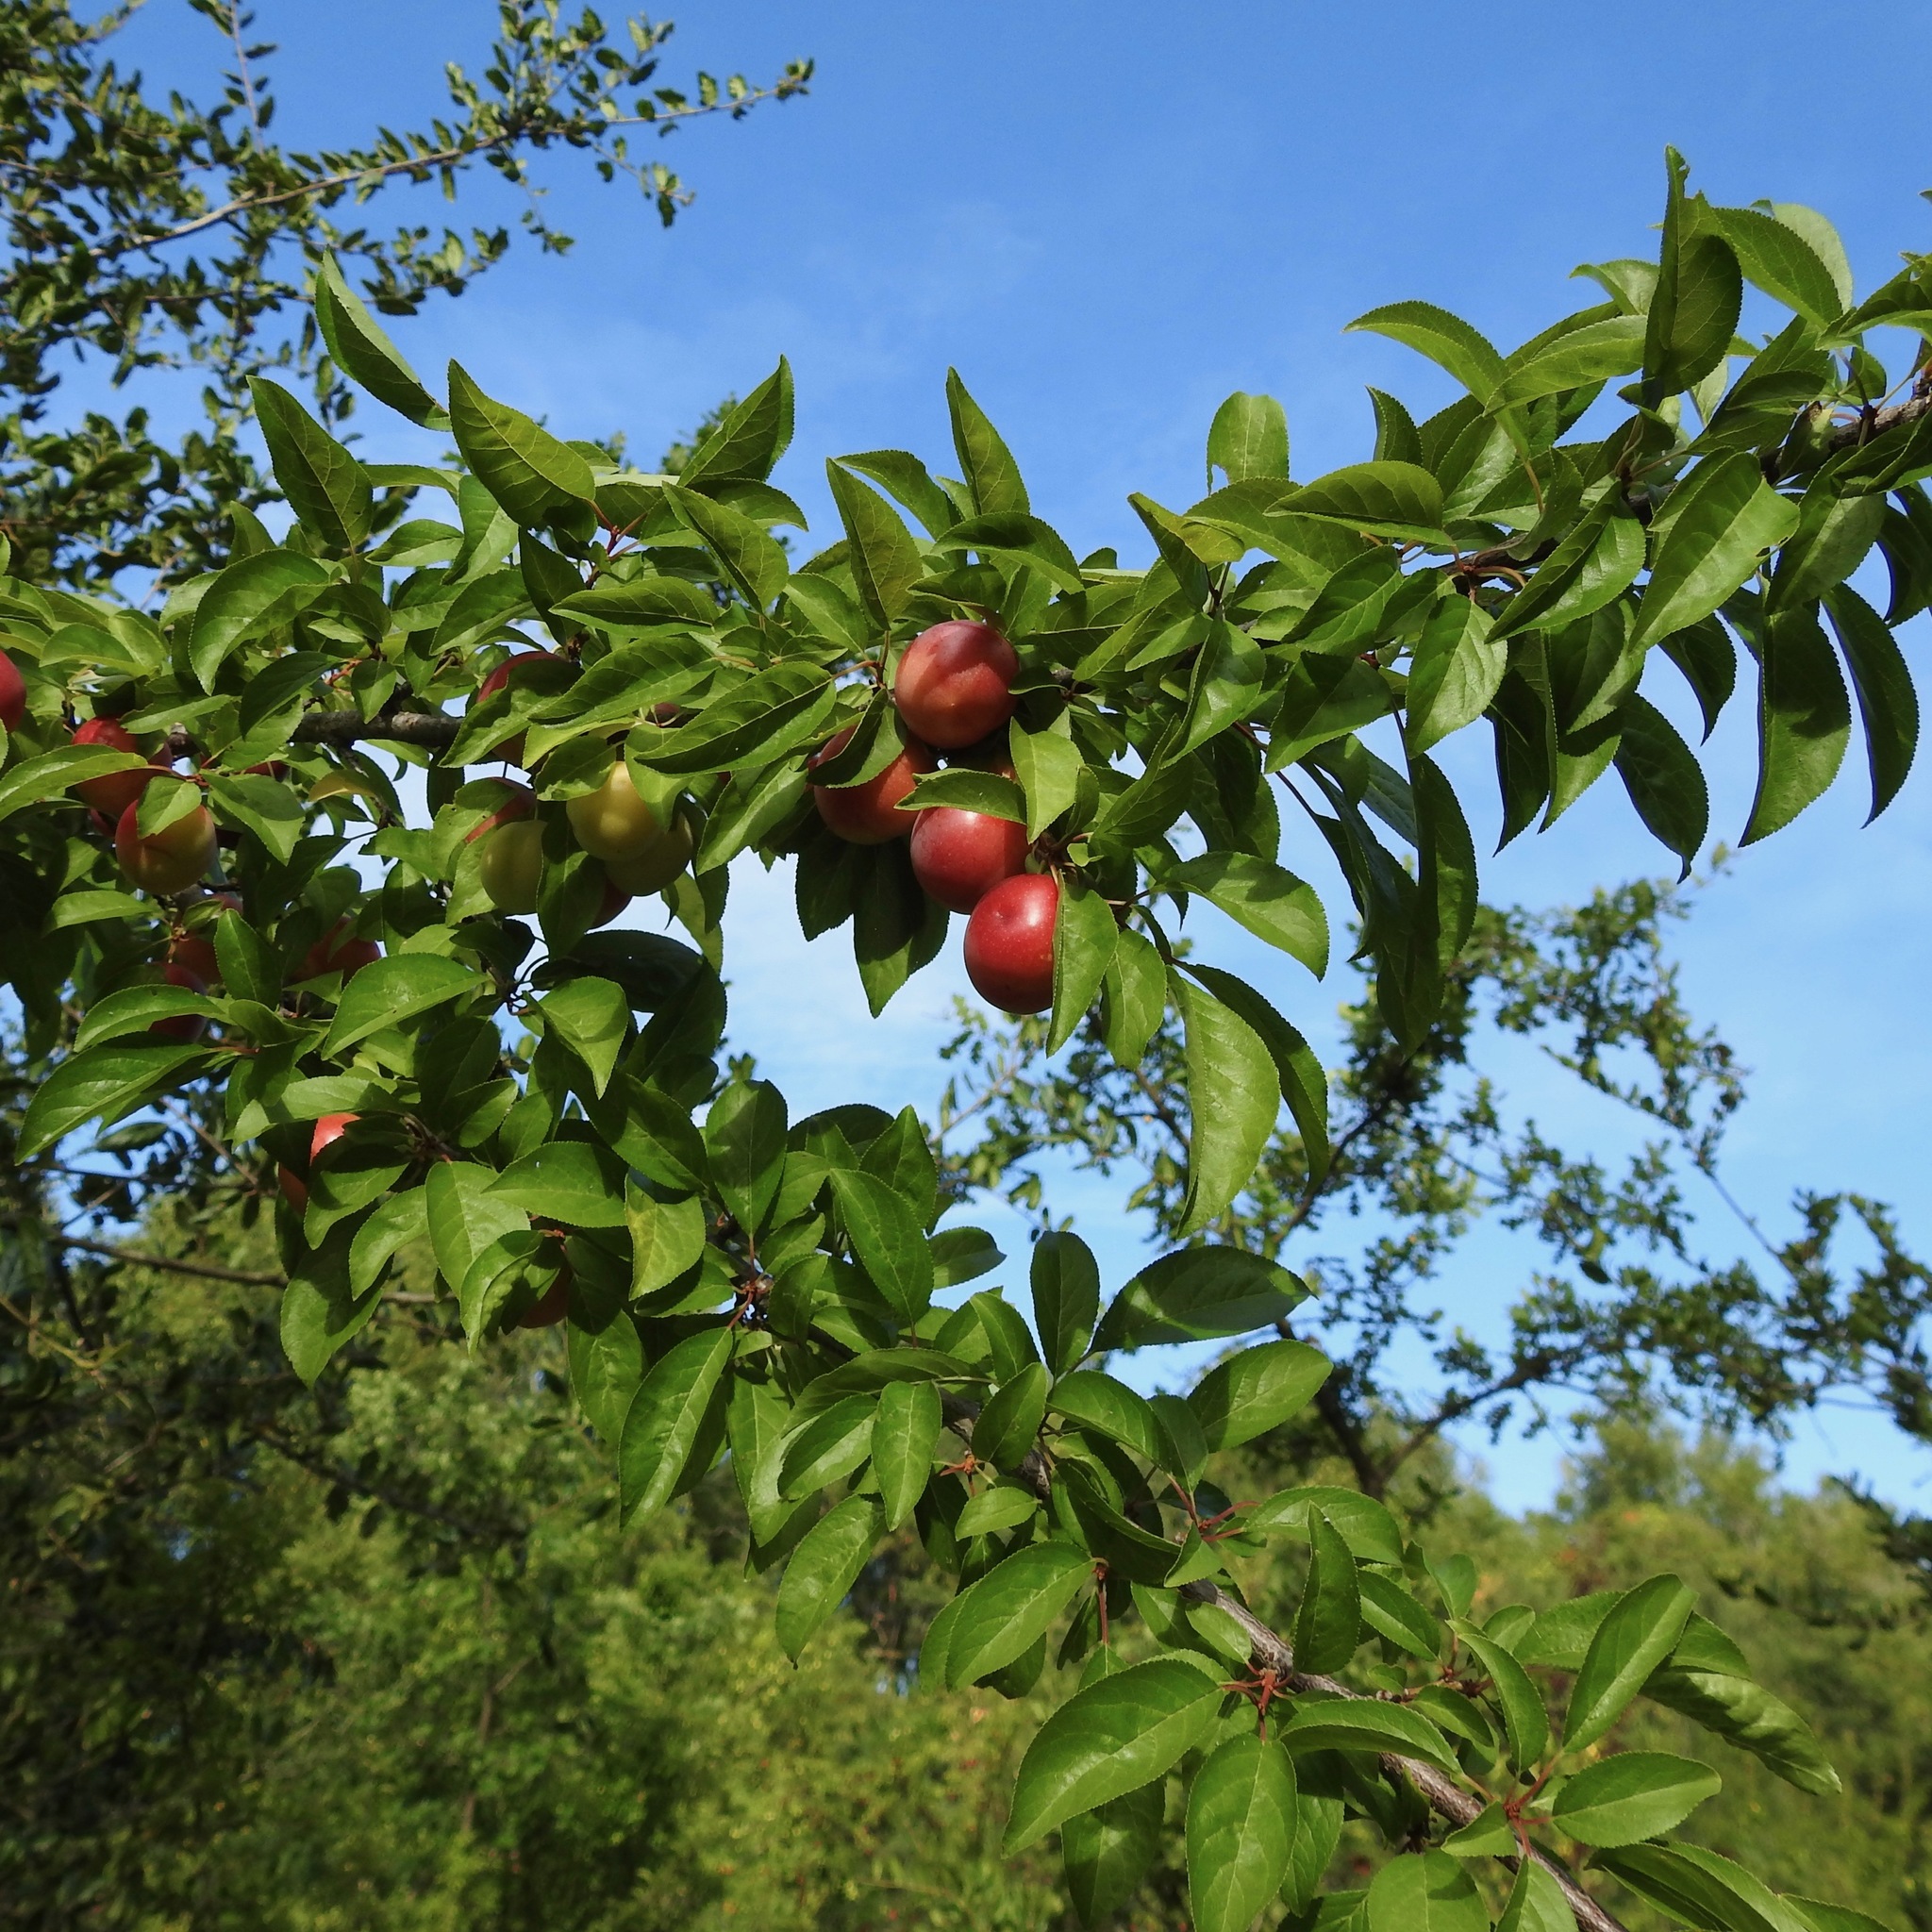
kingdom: Plantae
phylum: Tracheophyta
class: Magnoliopsida
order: Rosales
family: Rosaceae
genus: Prunus
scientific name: Prunus cerasifera
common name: Cherry plum
